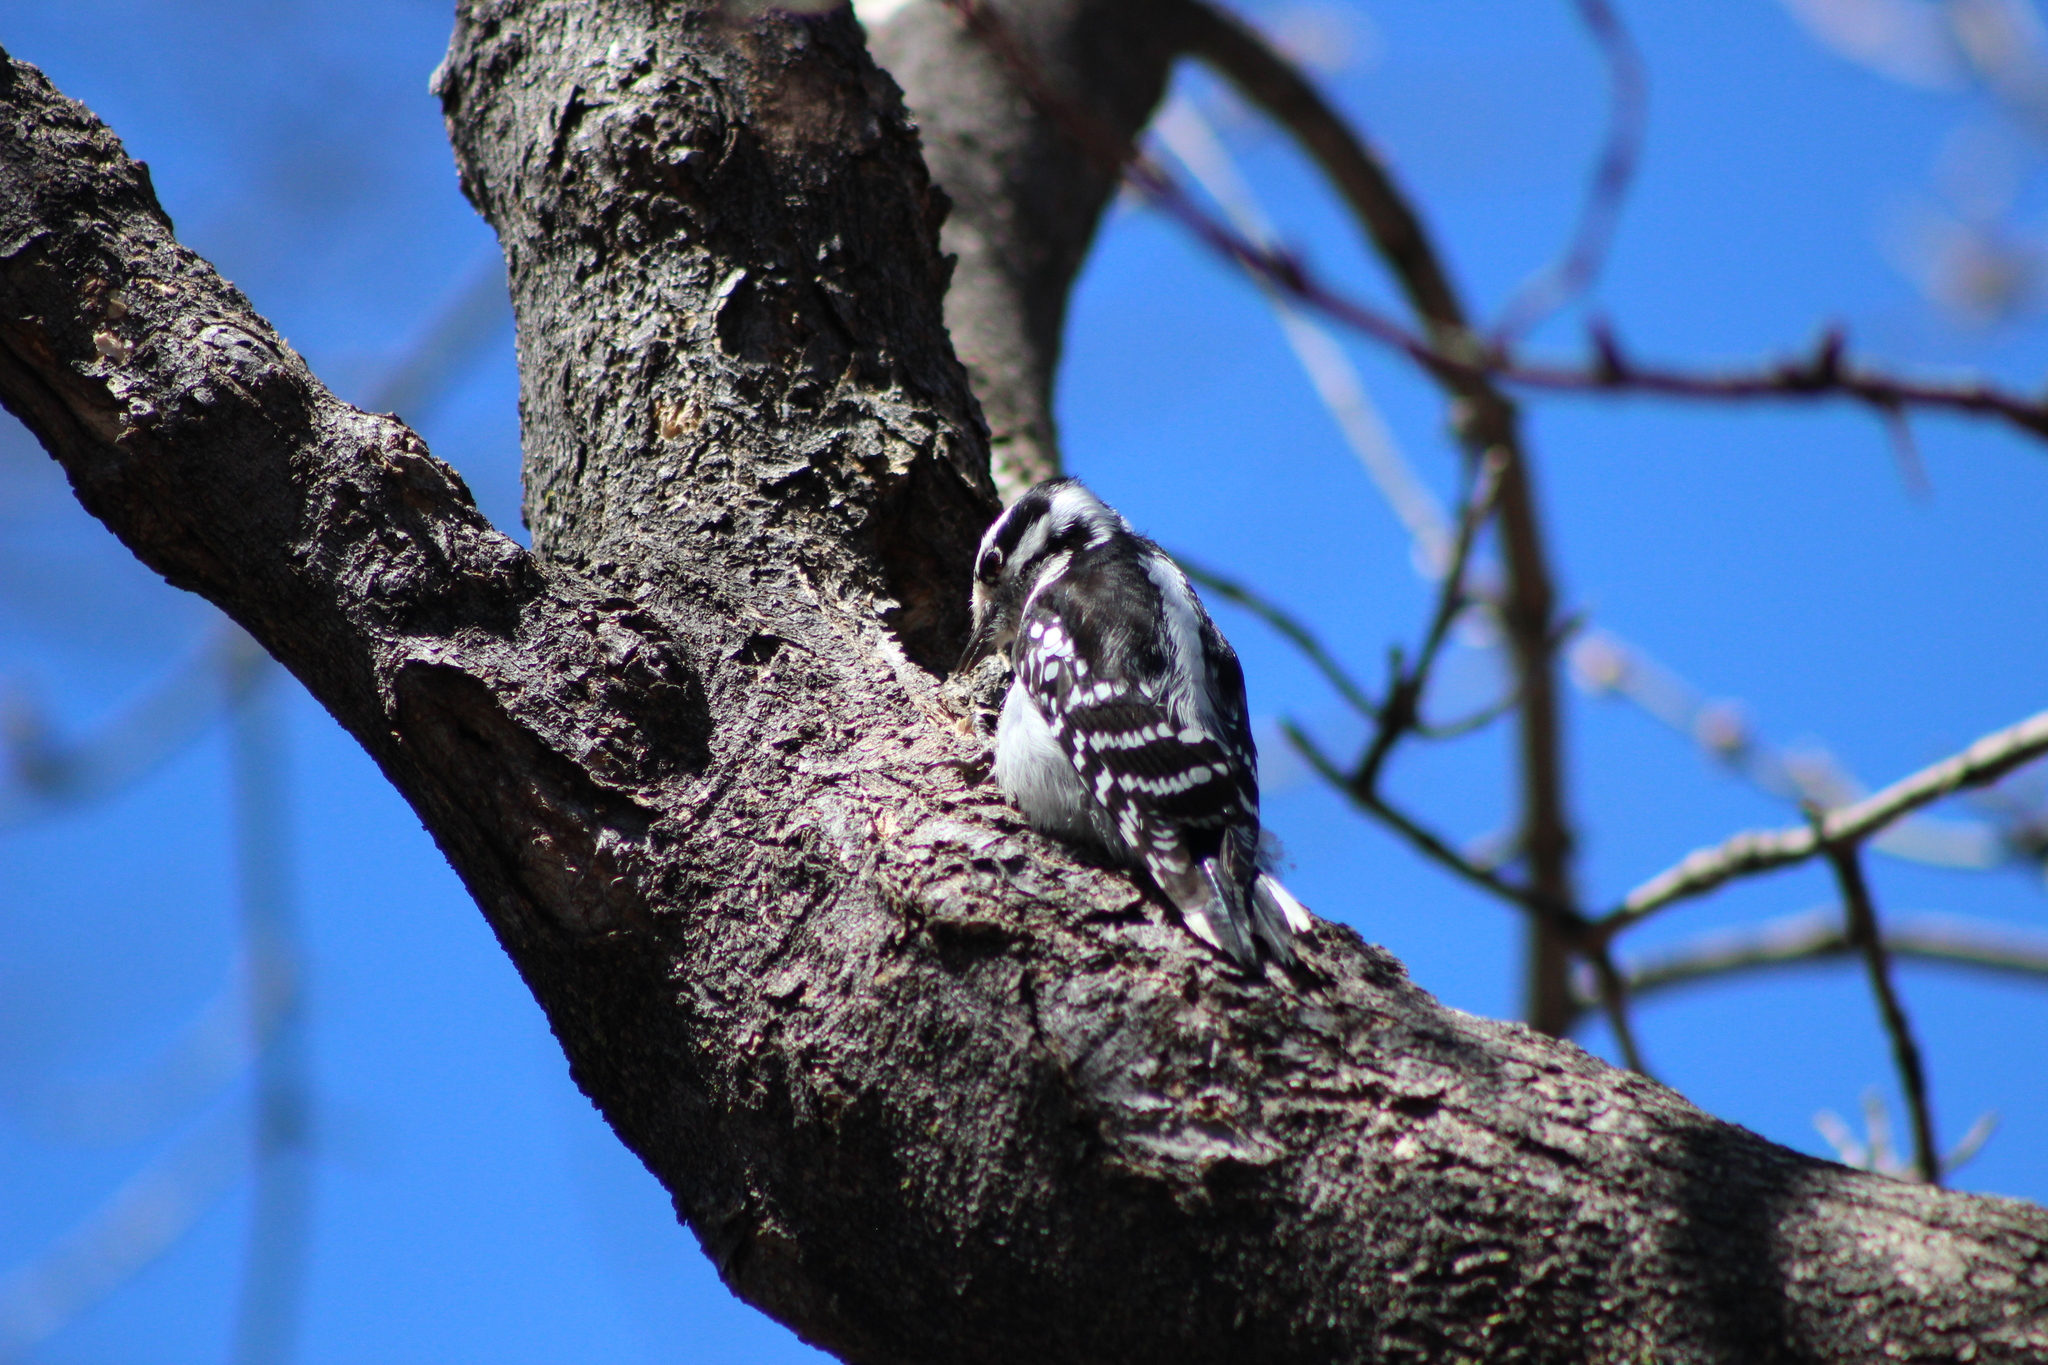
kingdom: Animalia
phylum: Chordata
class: Aves
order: Piciformes
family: Picidae
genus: Dryobates
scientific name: Dryobates pubescens
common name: Downy woodpecker
